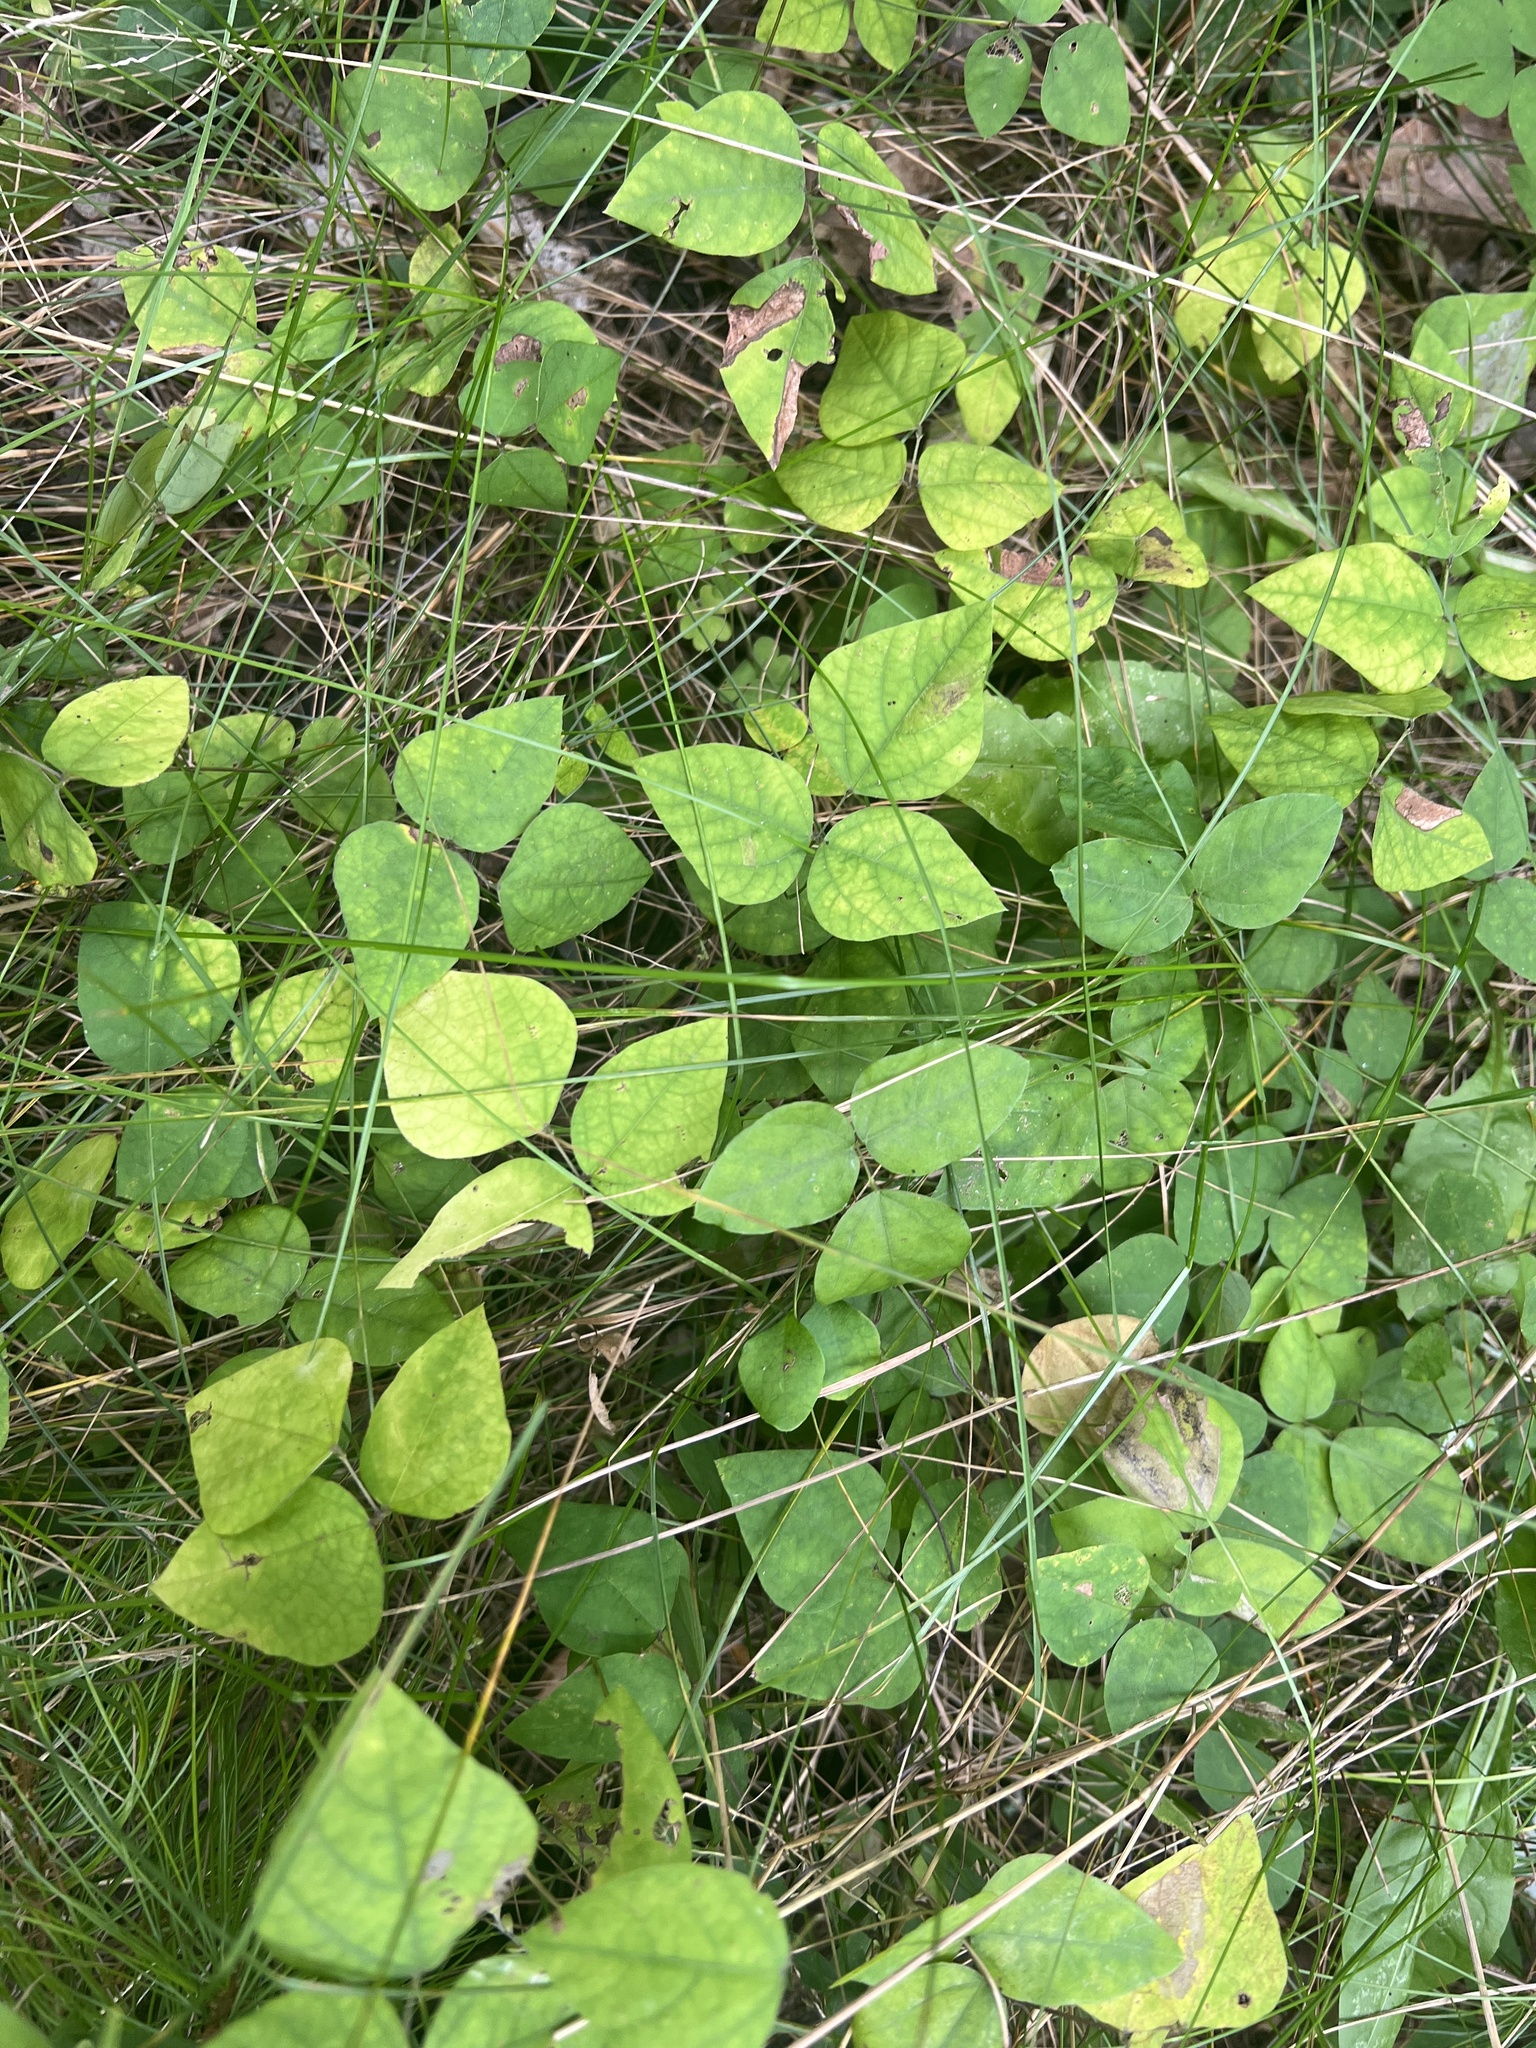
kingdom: Plantae
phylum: Tracheophyta
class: Magnoliopsida
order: Fabales
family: Fabaceae
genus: Amphicarpaea
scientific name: Amphicarpaea bracteata
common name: American hog peanut
